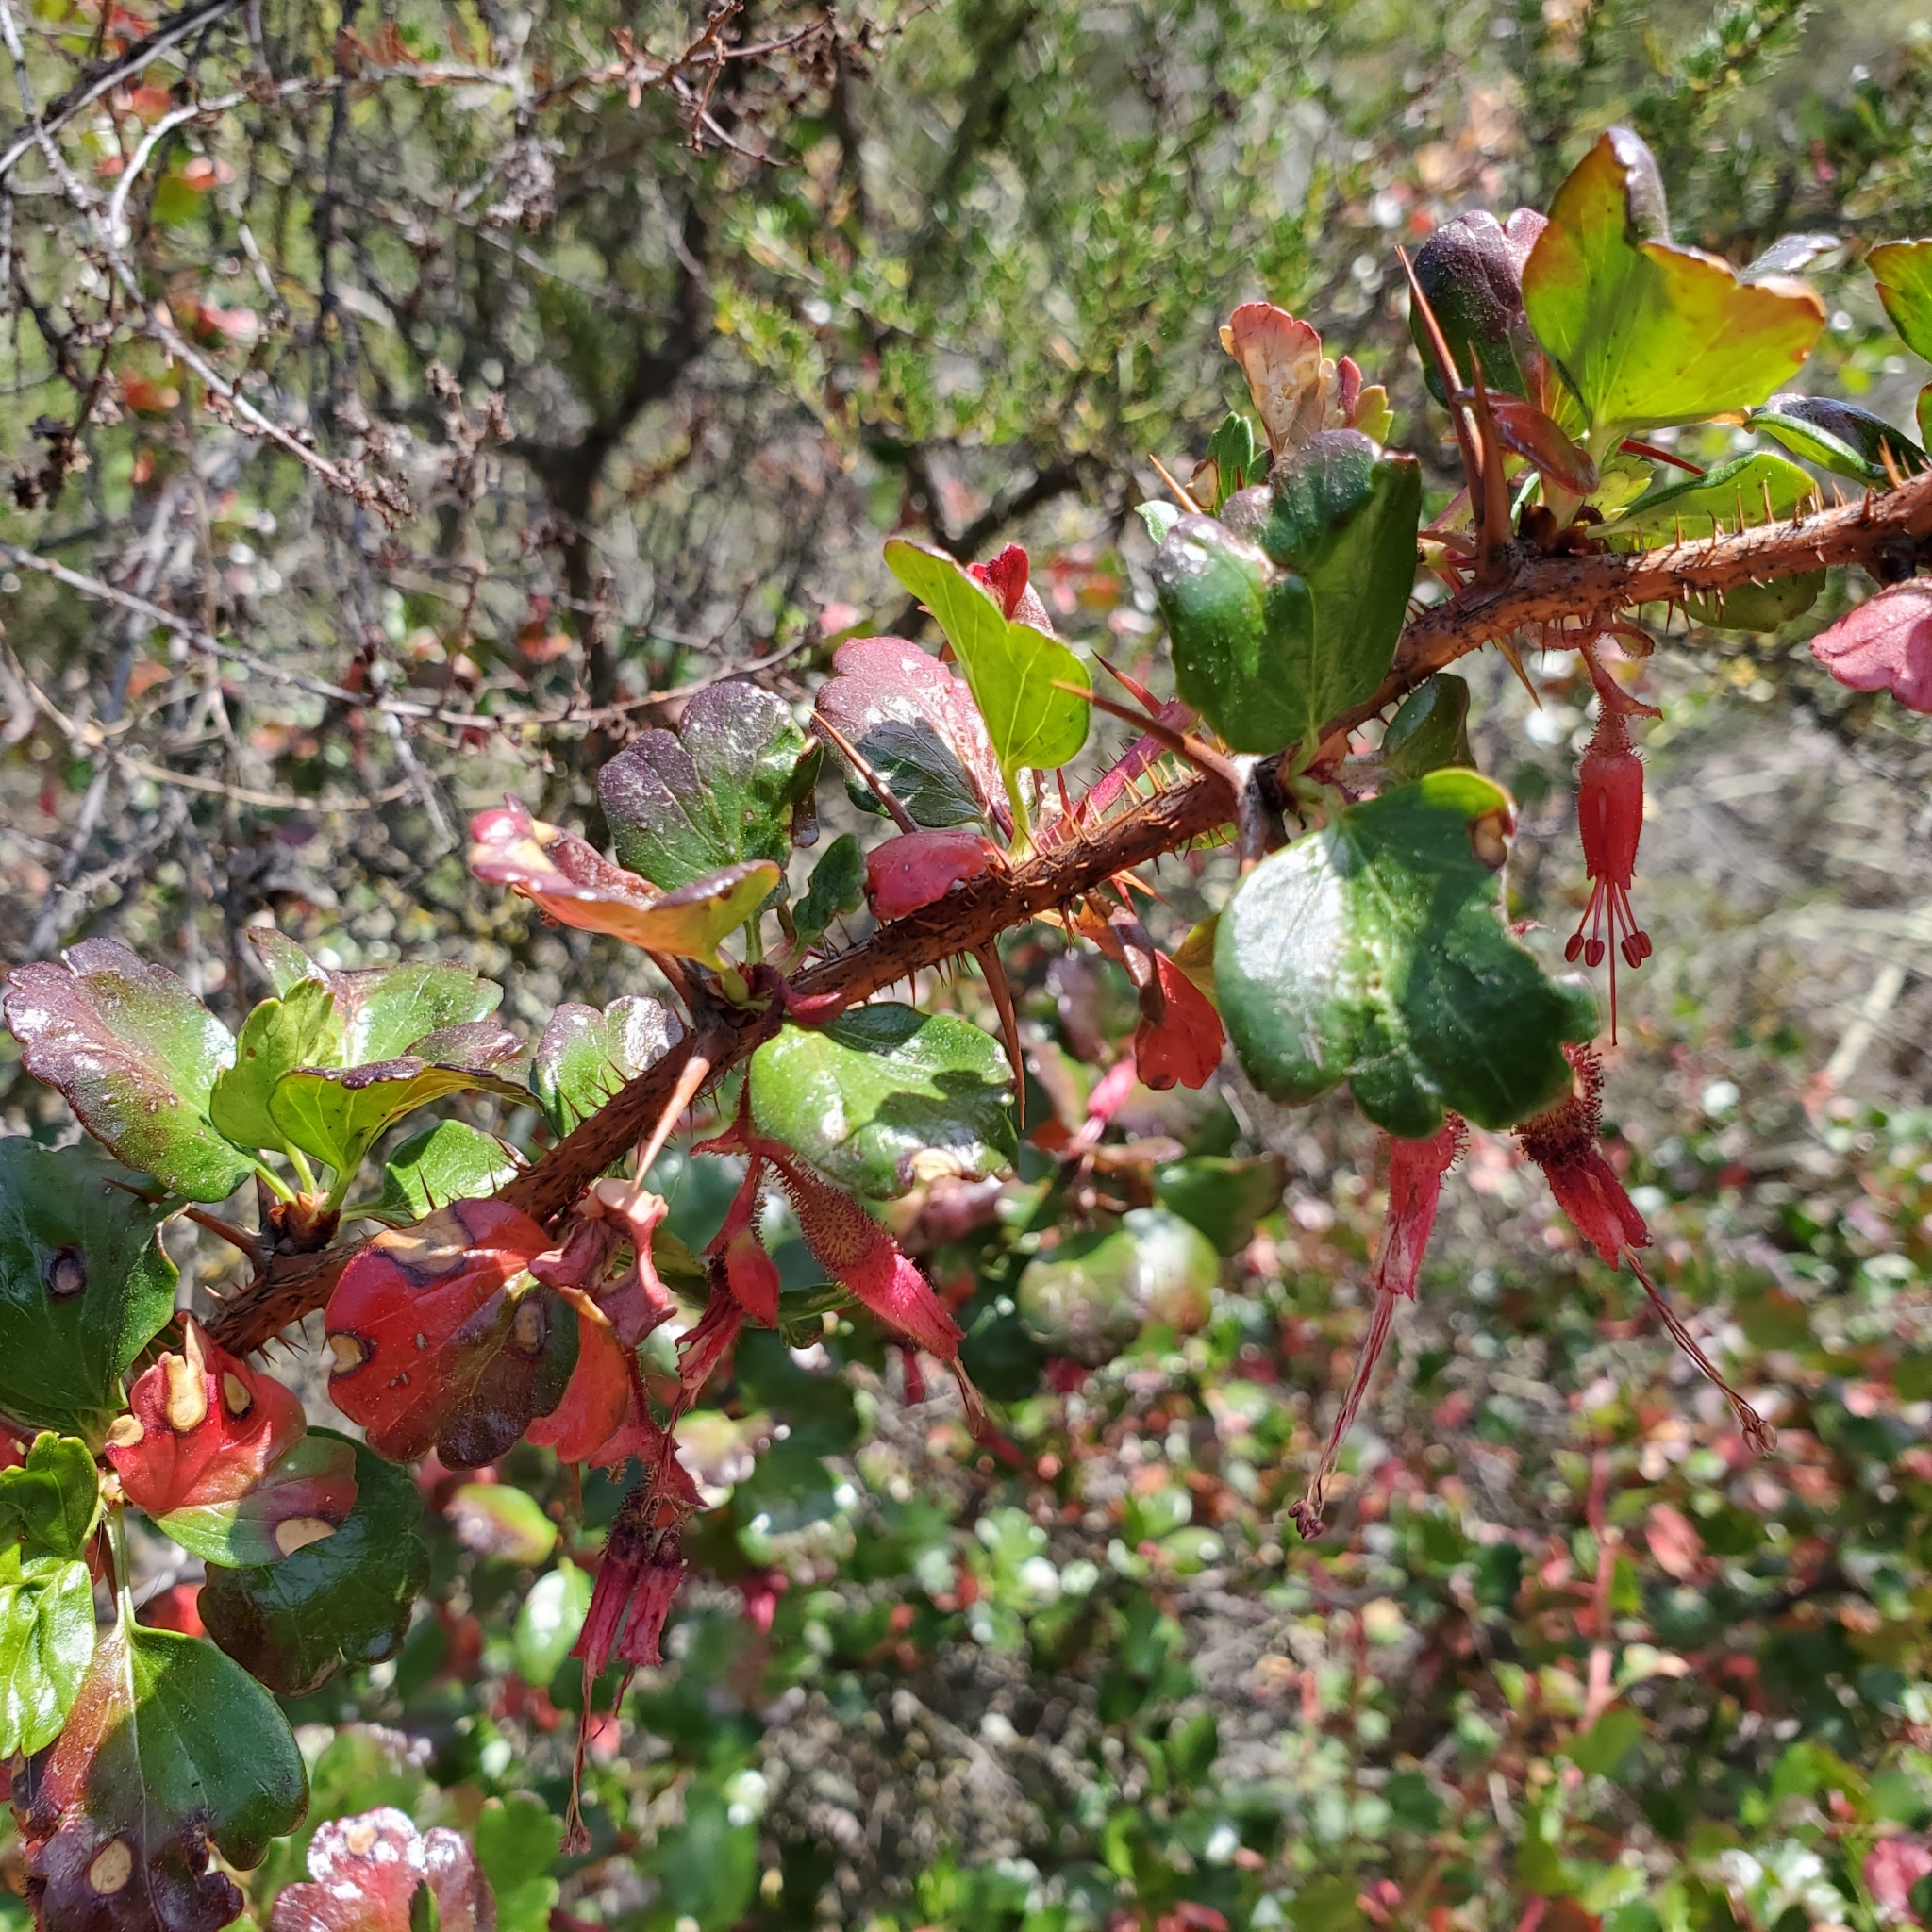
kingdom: Plantae
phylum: Tracheophyta
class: Magnoliopsida
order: Saxifragales
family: Grossulariaceae
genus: Ribes
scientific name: Ribes speciosum
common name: Fuchsia-flower gooseberry
